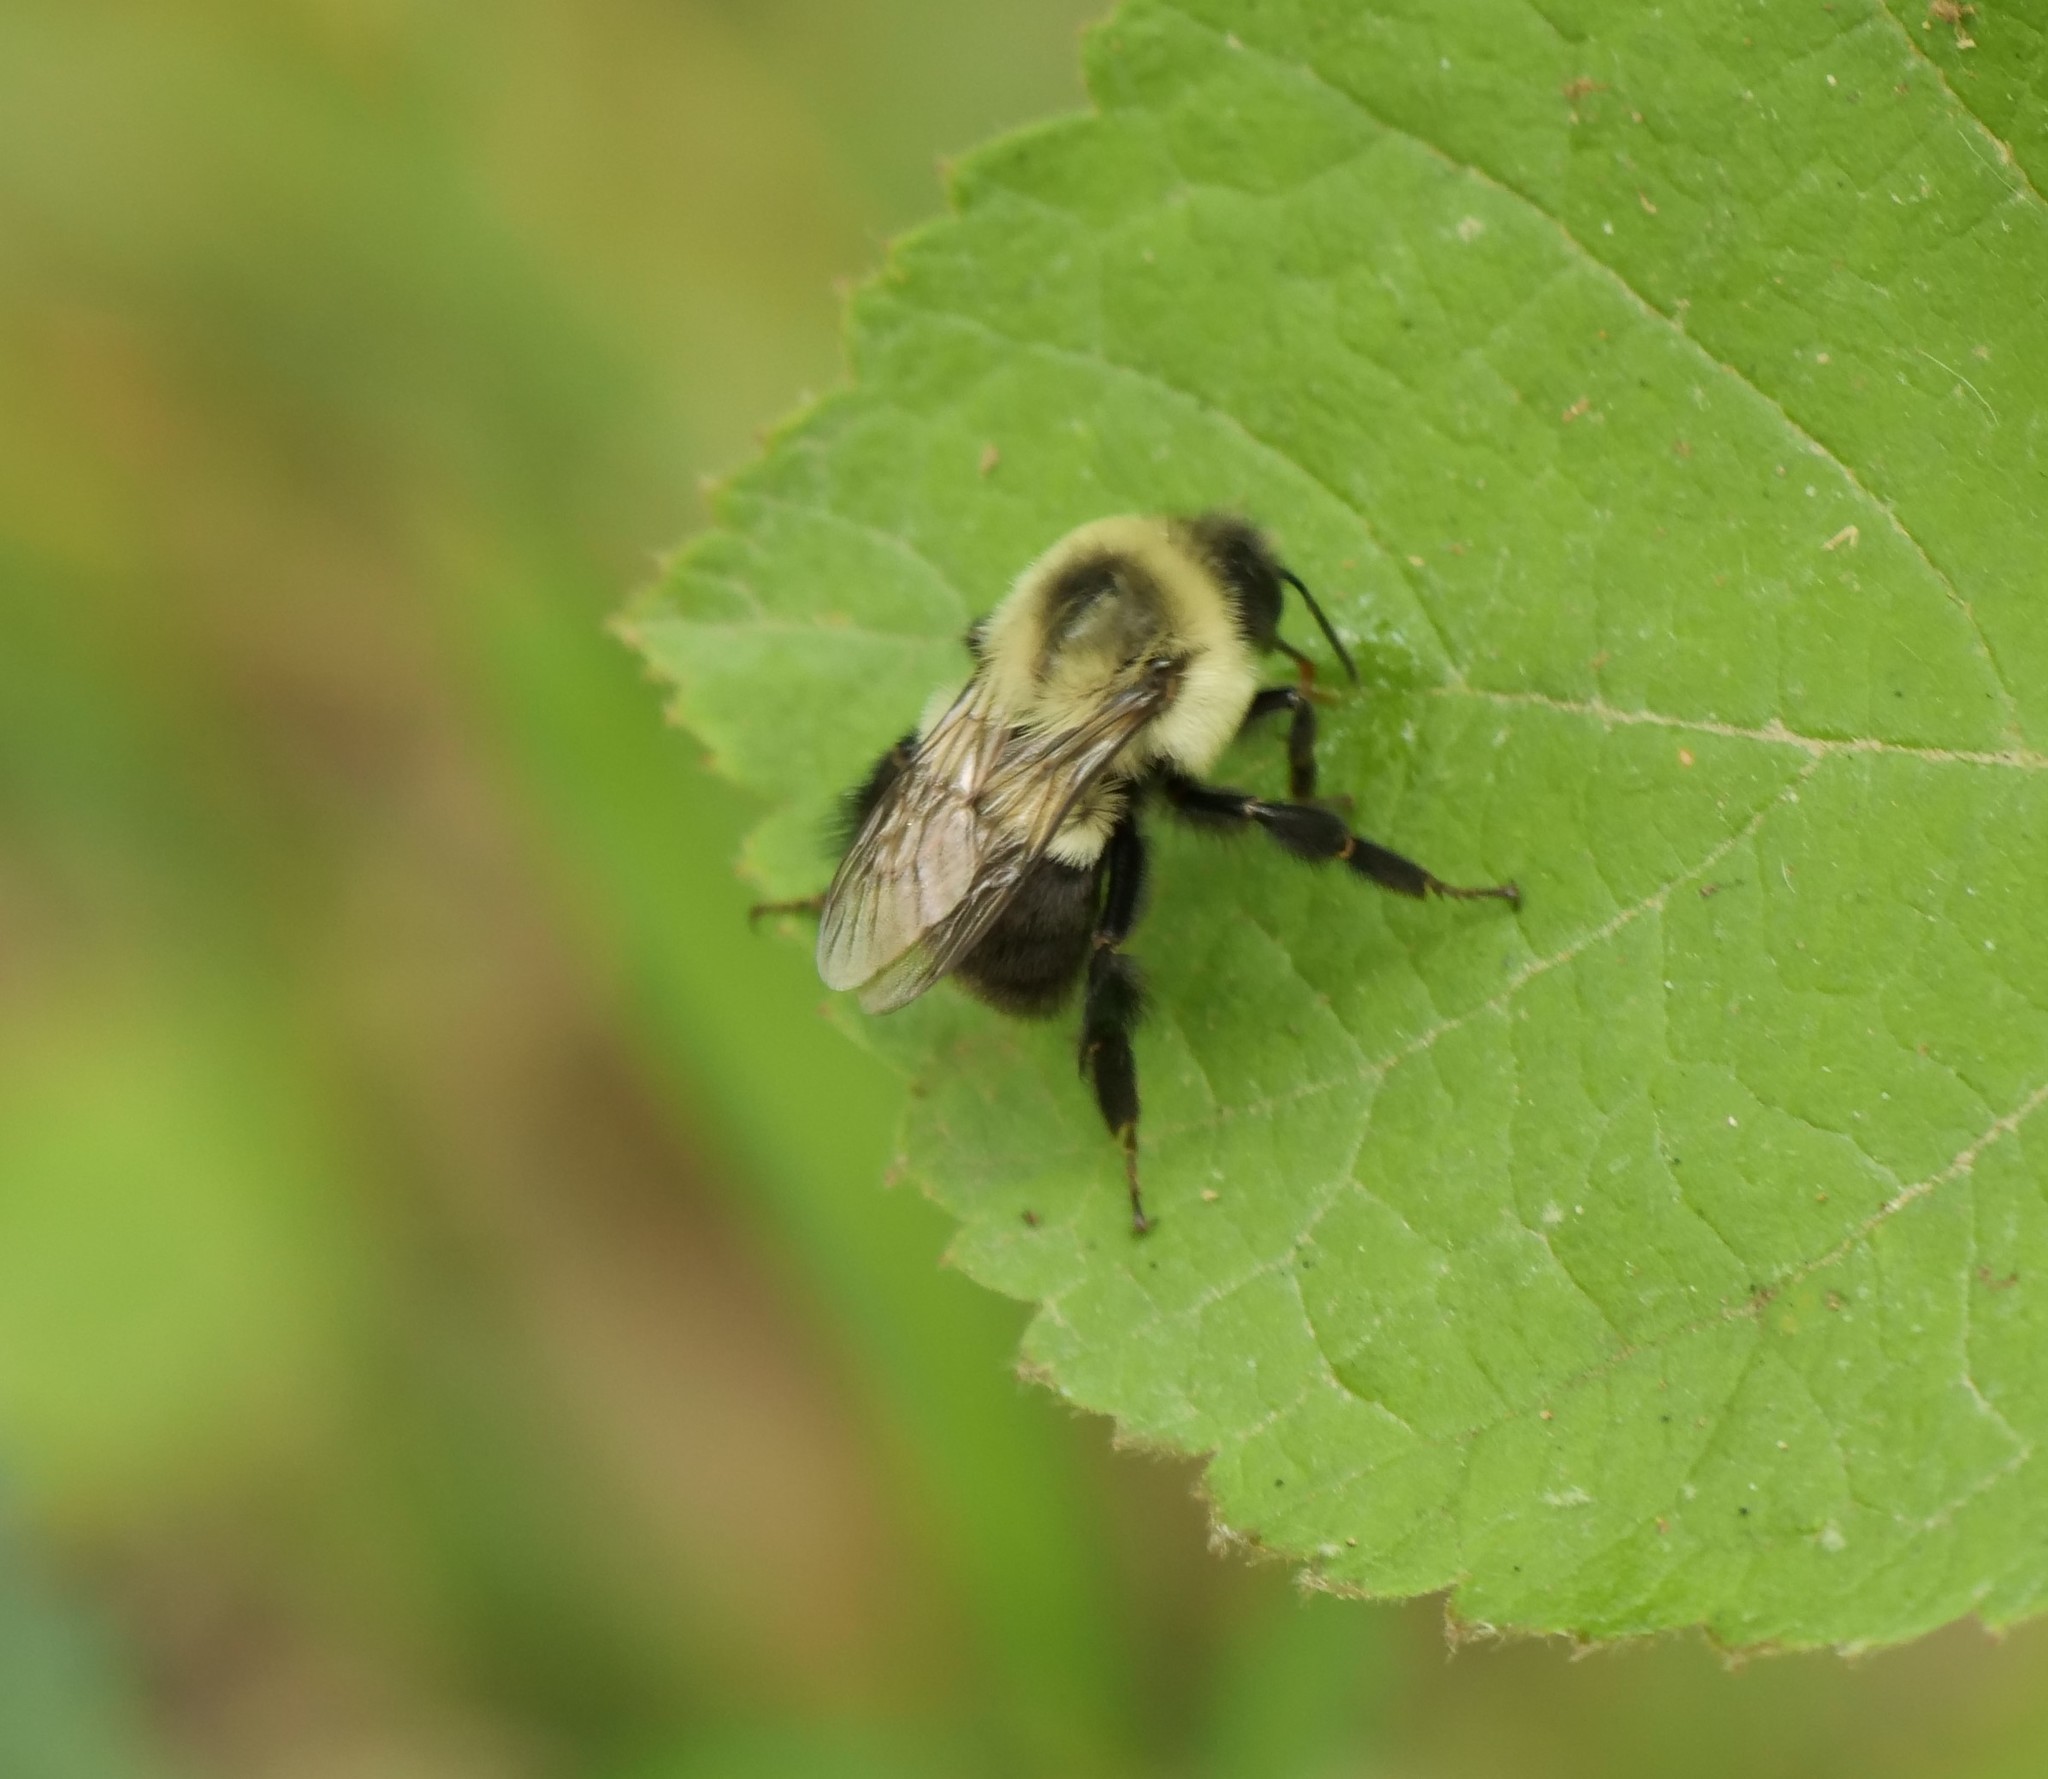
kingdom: Animalia
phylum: Arthropoda
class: Insecta
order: Hymenoptera
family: Apidae
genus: Bombus
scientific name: Bombus impatiens
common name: Common eastern bumble bee
